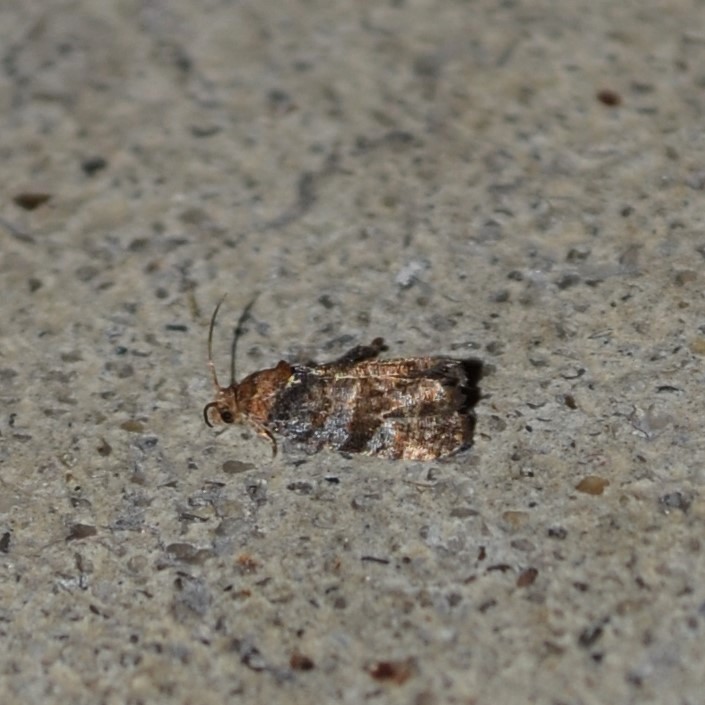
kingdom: Animalia
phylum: Arthropoda
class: Insecta
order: Lepidoptera
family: Tortricidae
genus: Endothenia
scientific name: Endothenia hebesana
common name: Verbena bud moth
